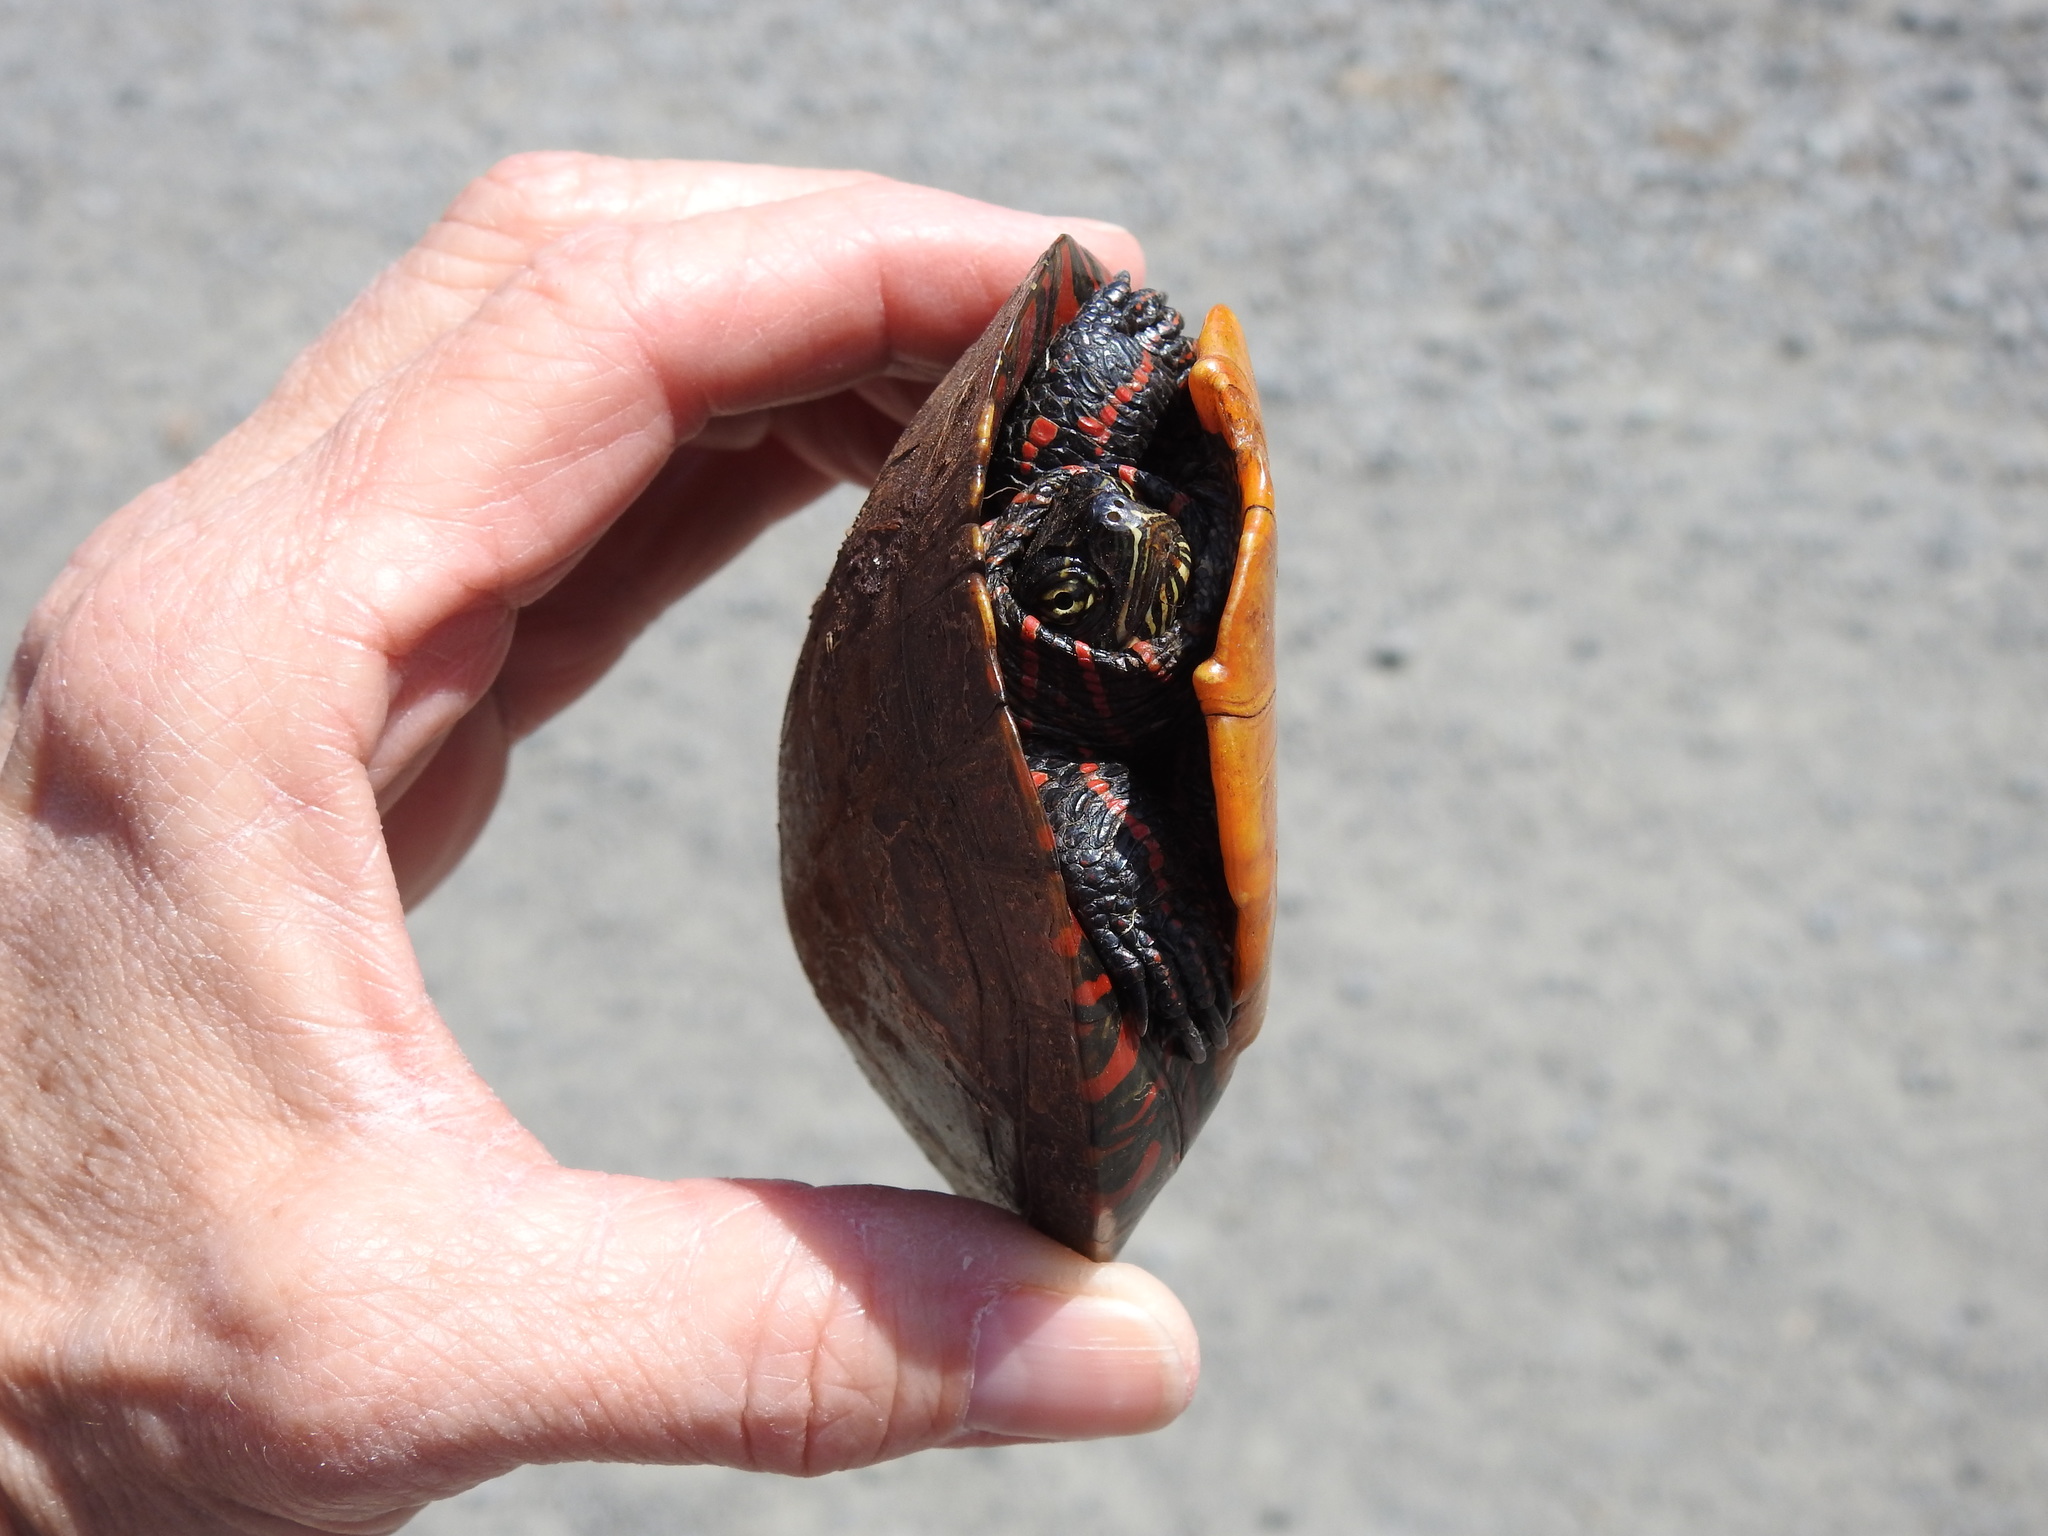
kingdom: Animalia
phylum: Chordata
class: Testudines
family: Emydidae
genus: Chrysemys
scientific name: Chrysemys picta
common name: Painted turtle
